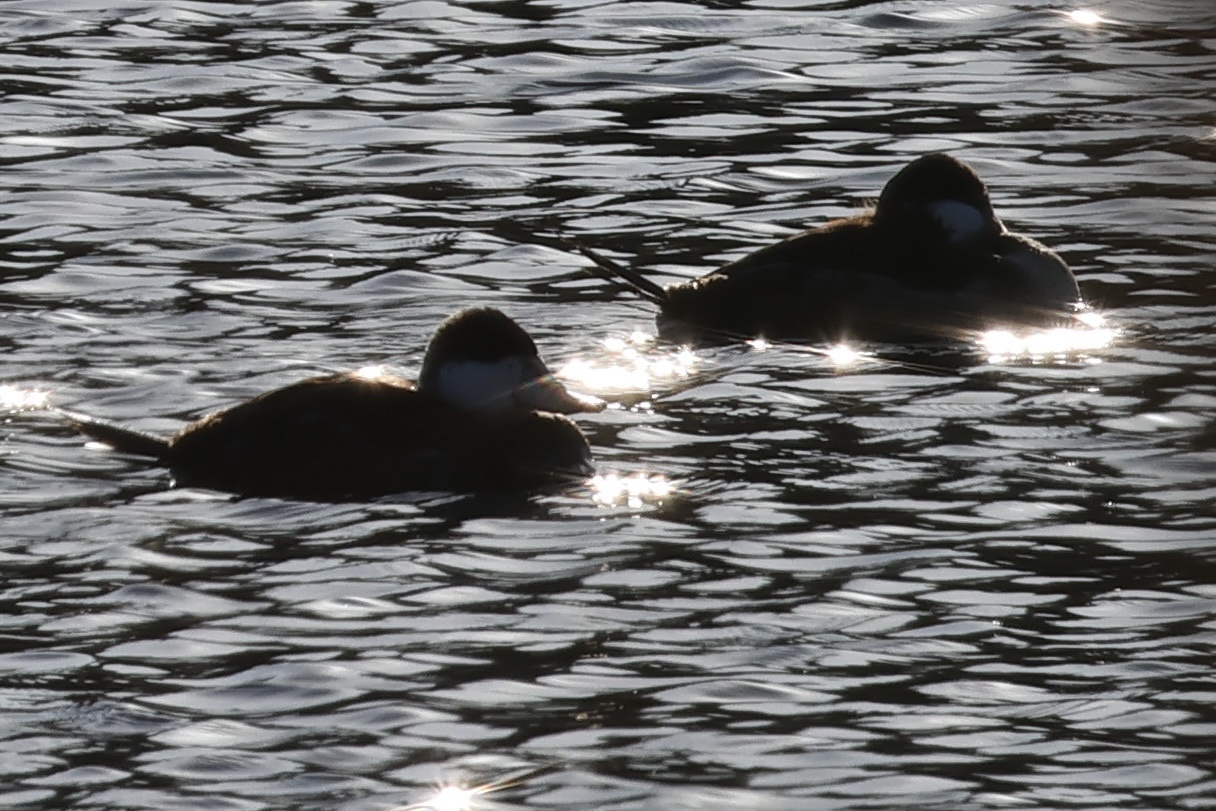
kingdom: Animalia
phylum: Chordata
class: Aves
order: Anseriformes
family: Anatidae
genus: Oxyura
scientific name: Oxyura jamaicensis
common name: Ruddy duck
